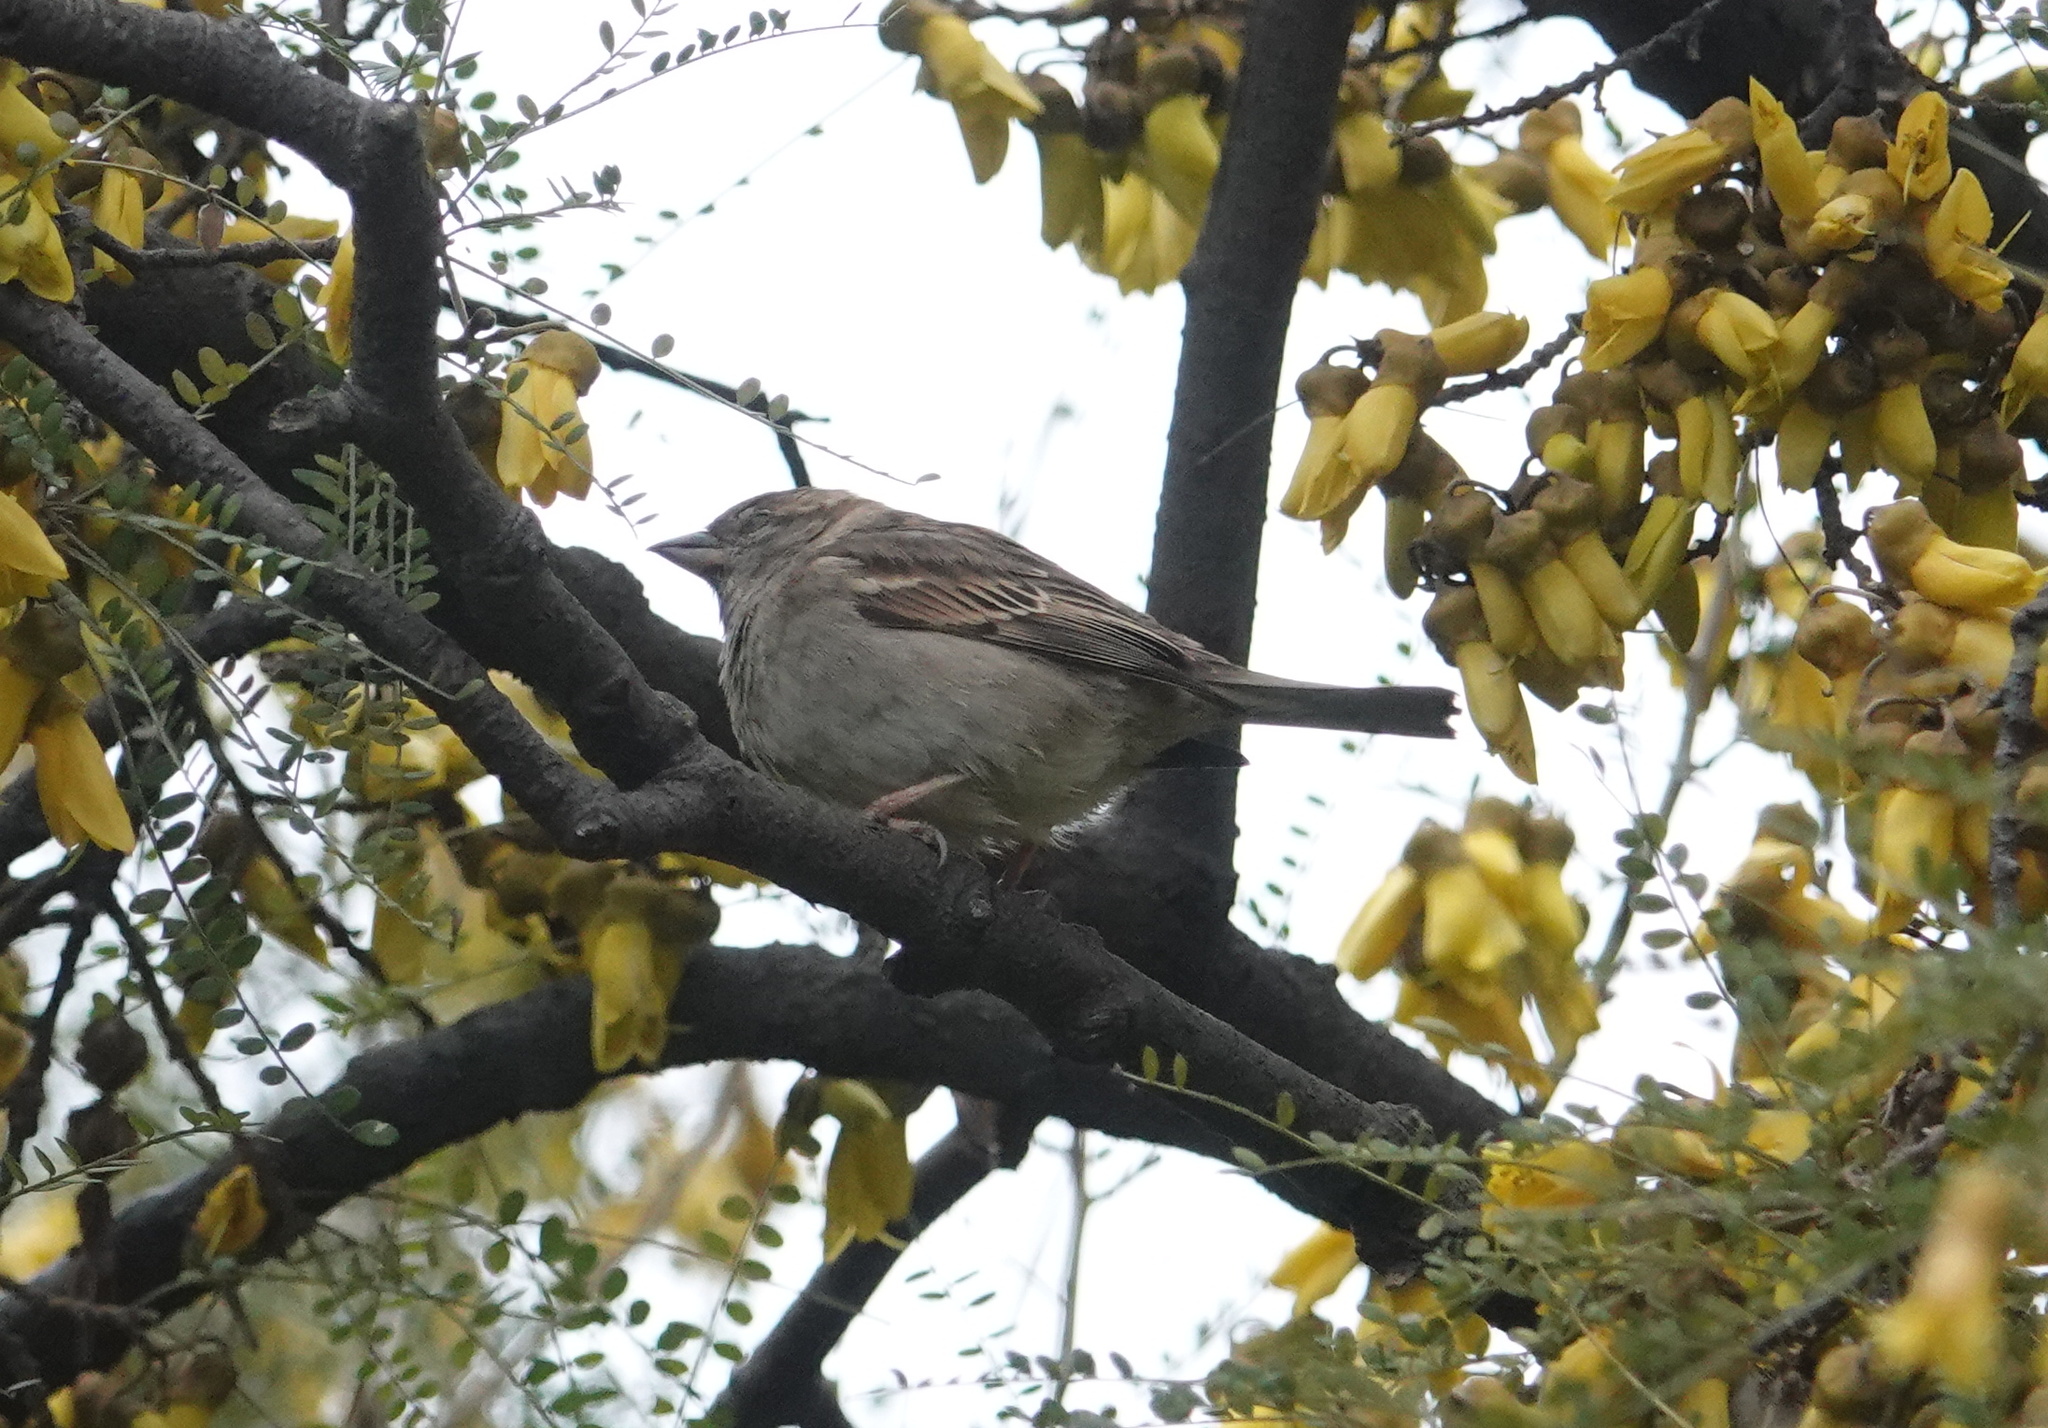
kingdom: Animalia
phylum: Chordata
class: Aves
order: Passeriformes
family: Passeridae
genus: Passer
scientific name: Passer domesticus
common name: House sparrow
